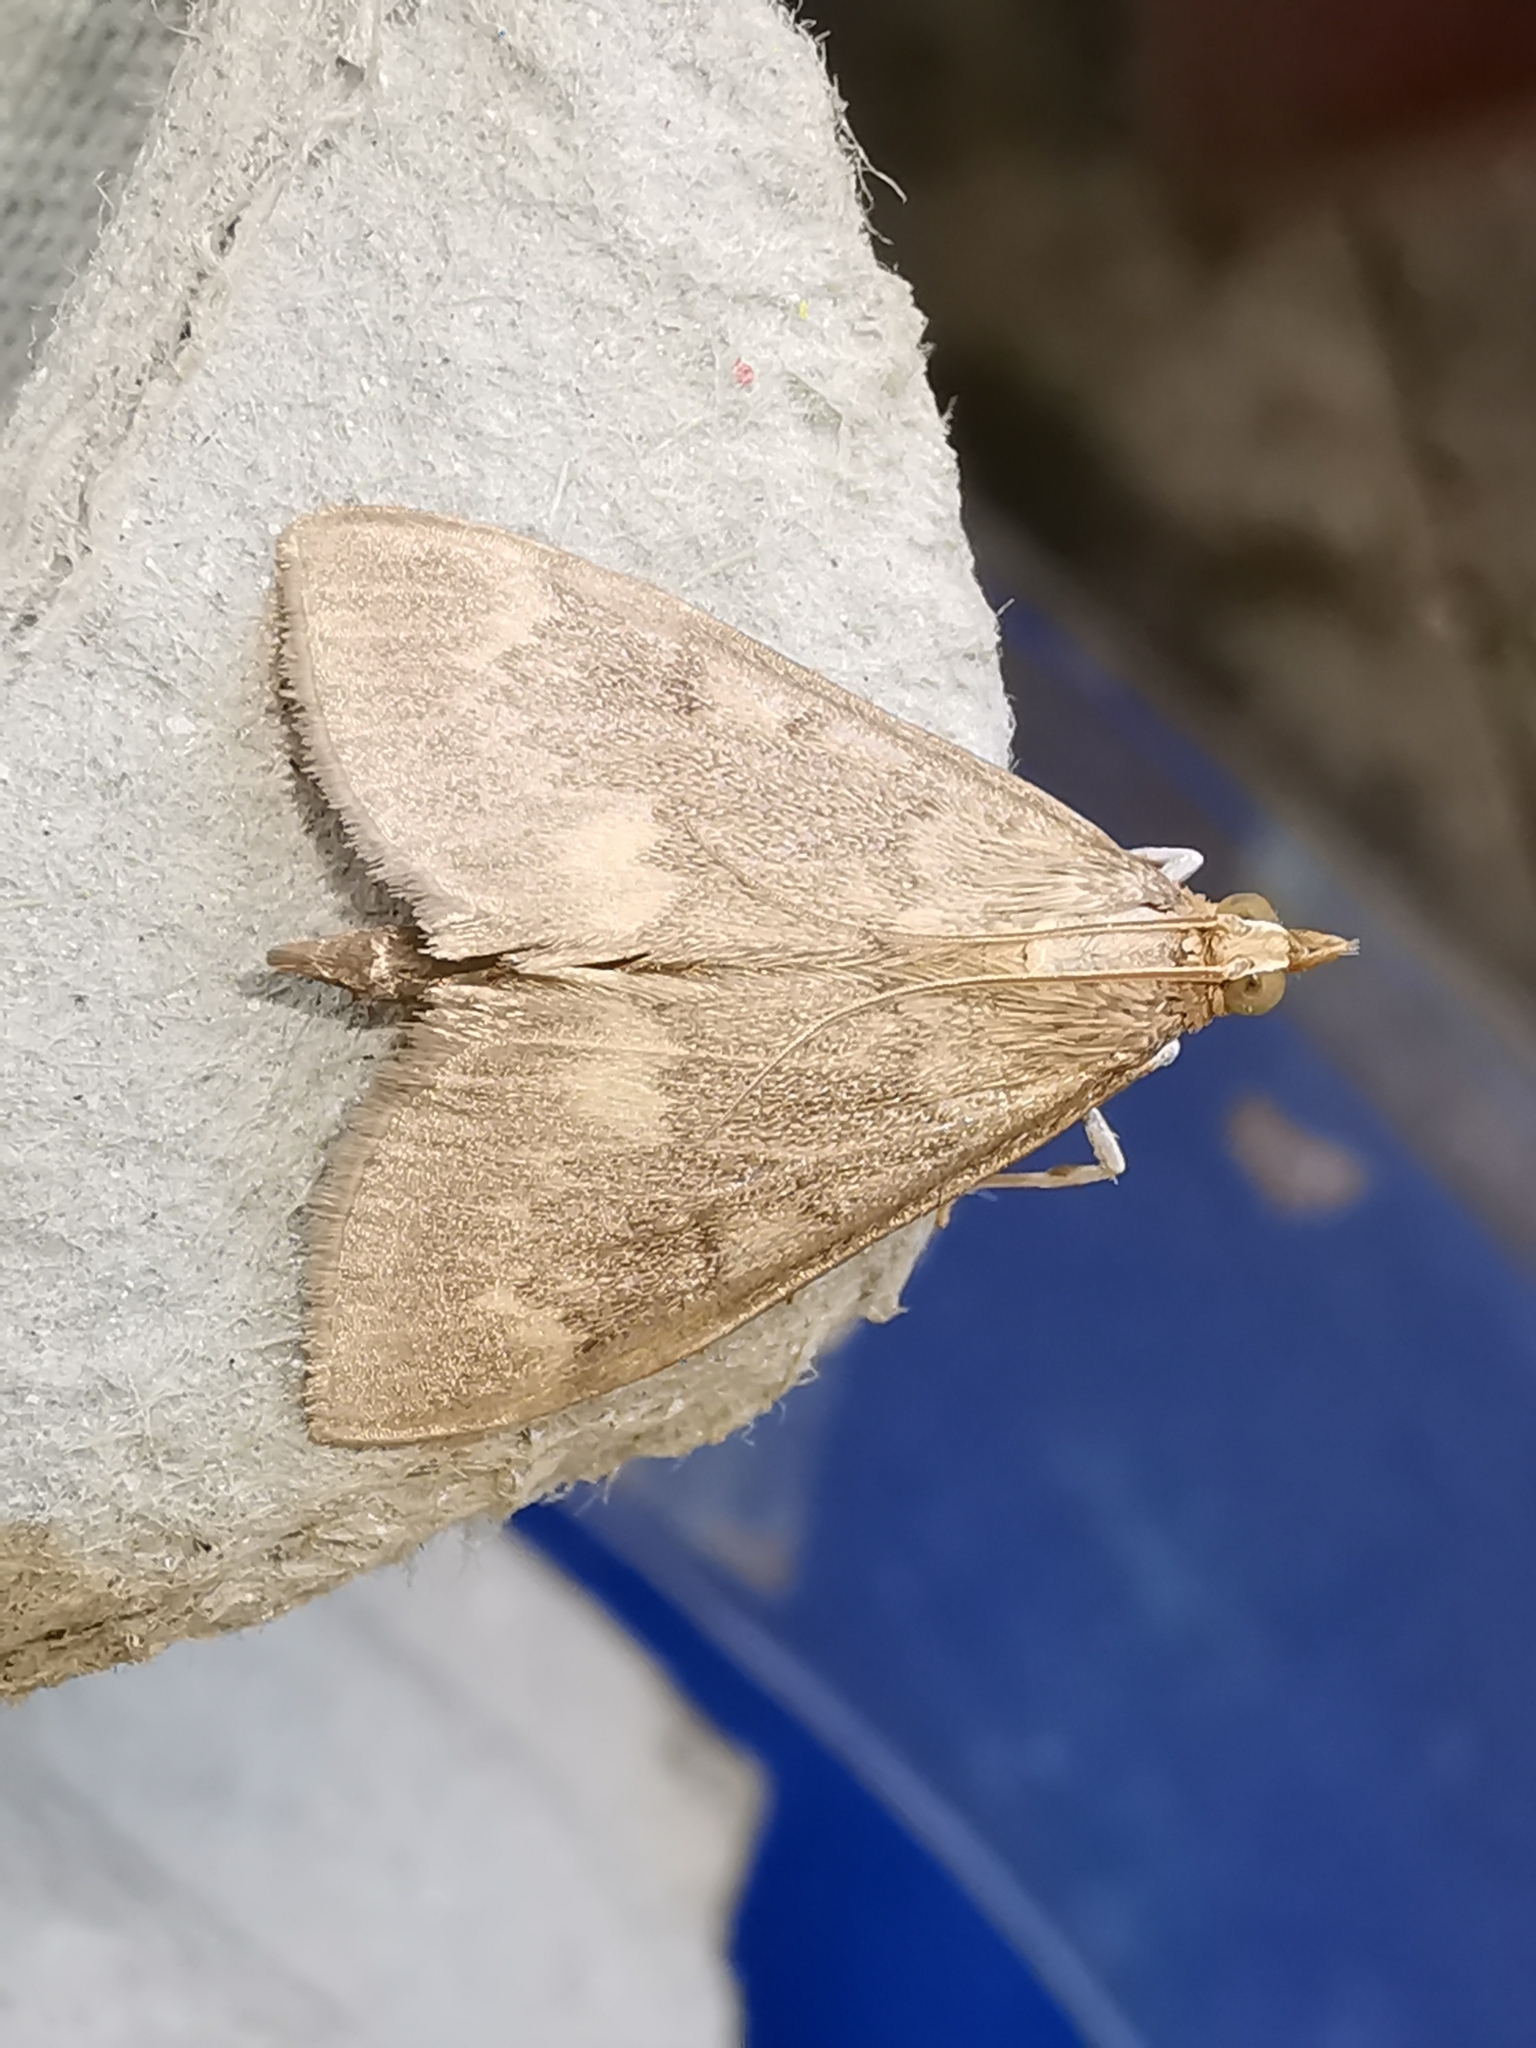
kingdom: Animalia
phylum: Arthropoda
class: Insecta
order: Lepidoptera
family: Crambidae
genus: Ostrinia
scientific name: Ostrinia nubilalis
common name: European corn borer
